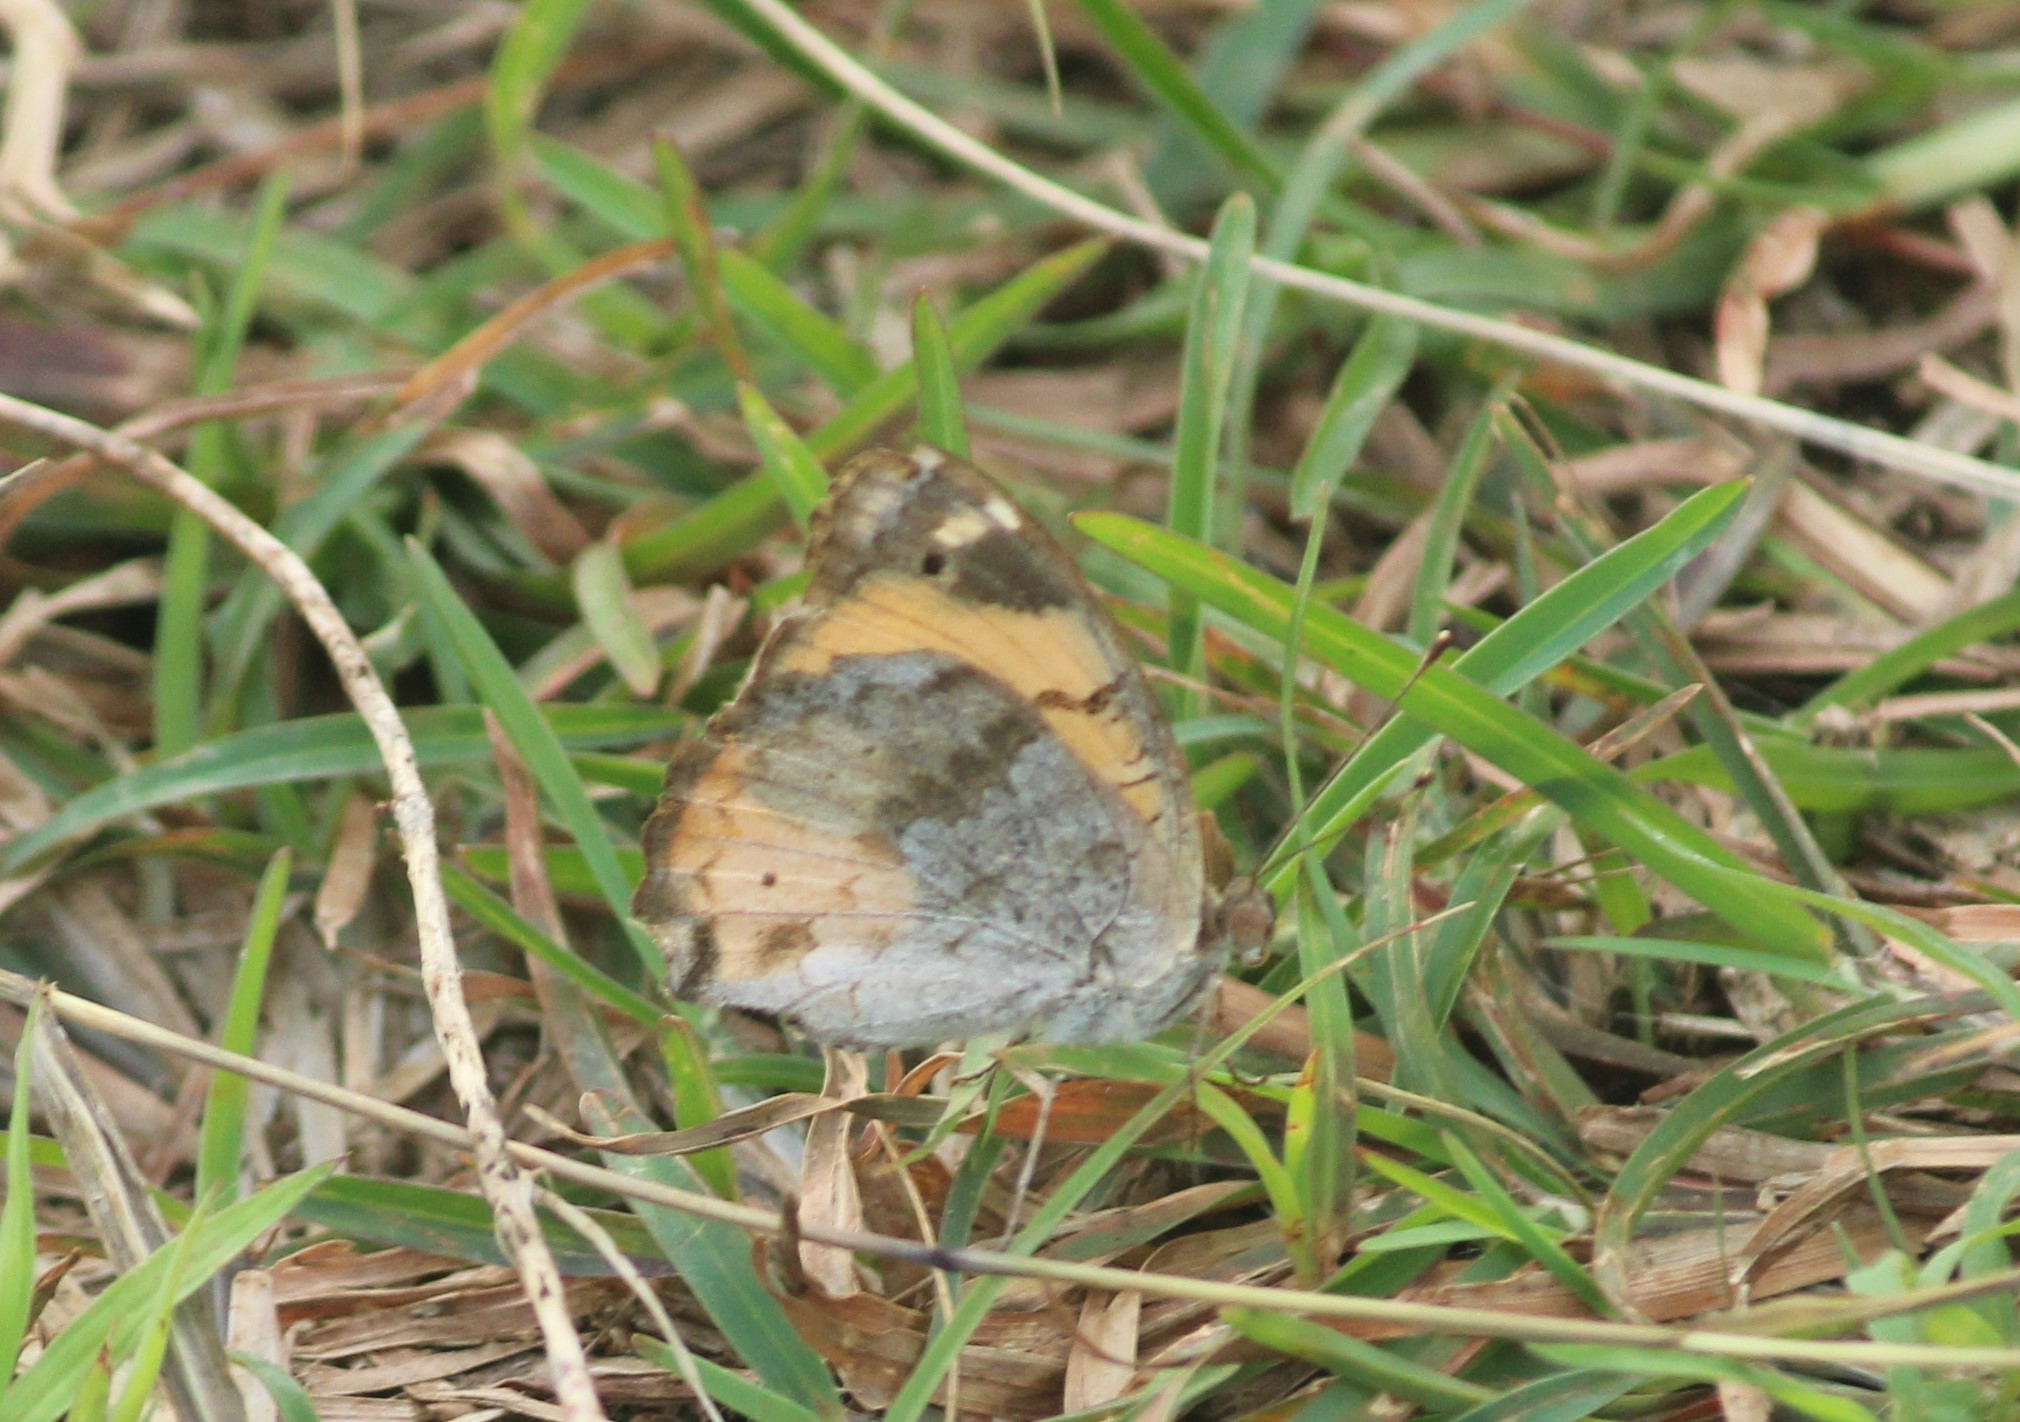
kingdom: Animalia
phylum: Arthropoda
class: Insecta
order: Lepidoptera
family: Nymphalidae
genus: Junonia
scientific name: Junonia hierta
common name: Yellow pansy
